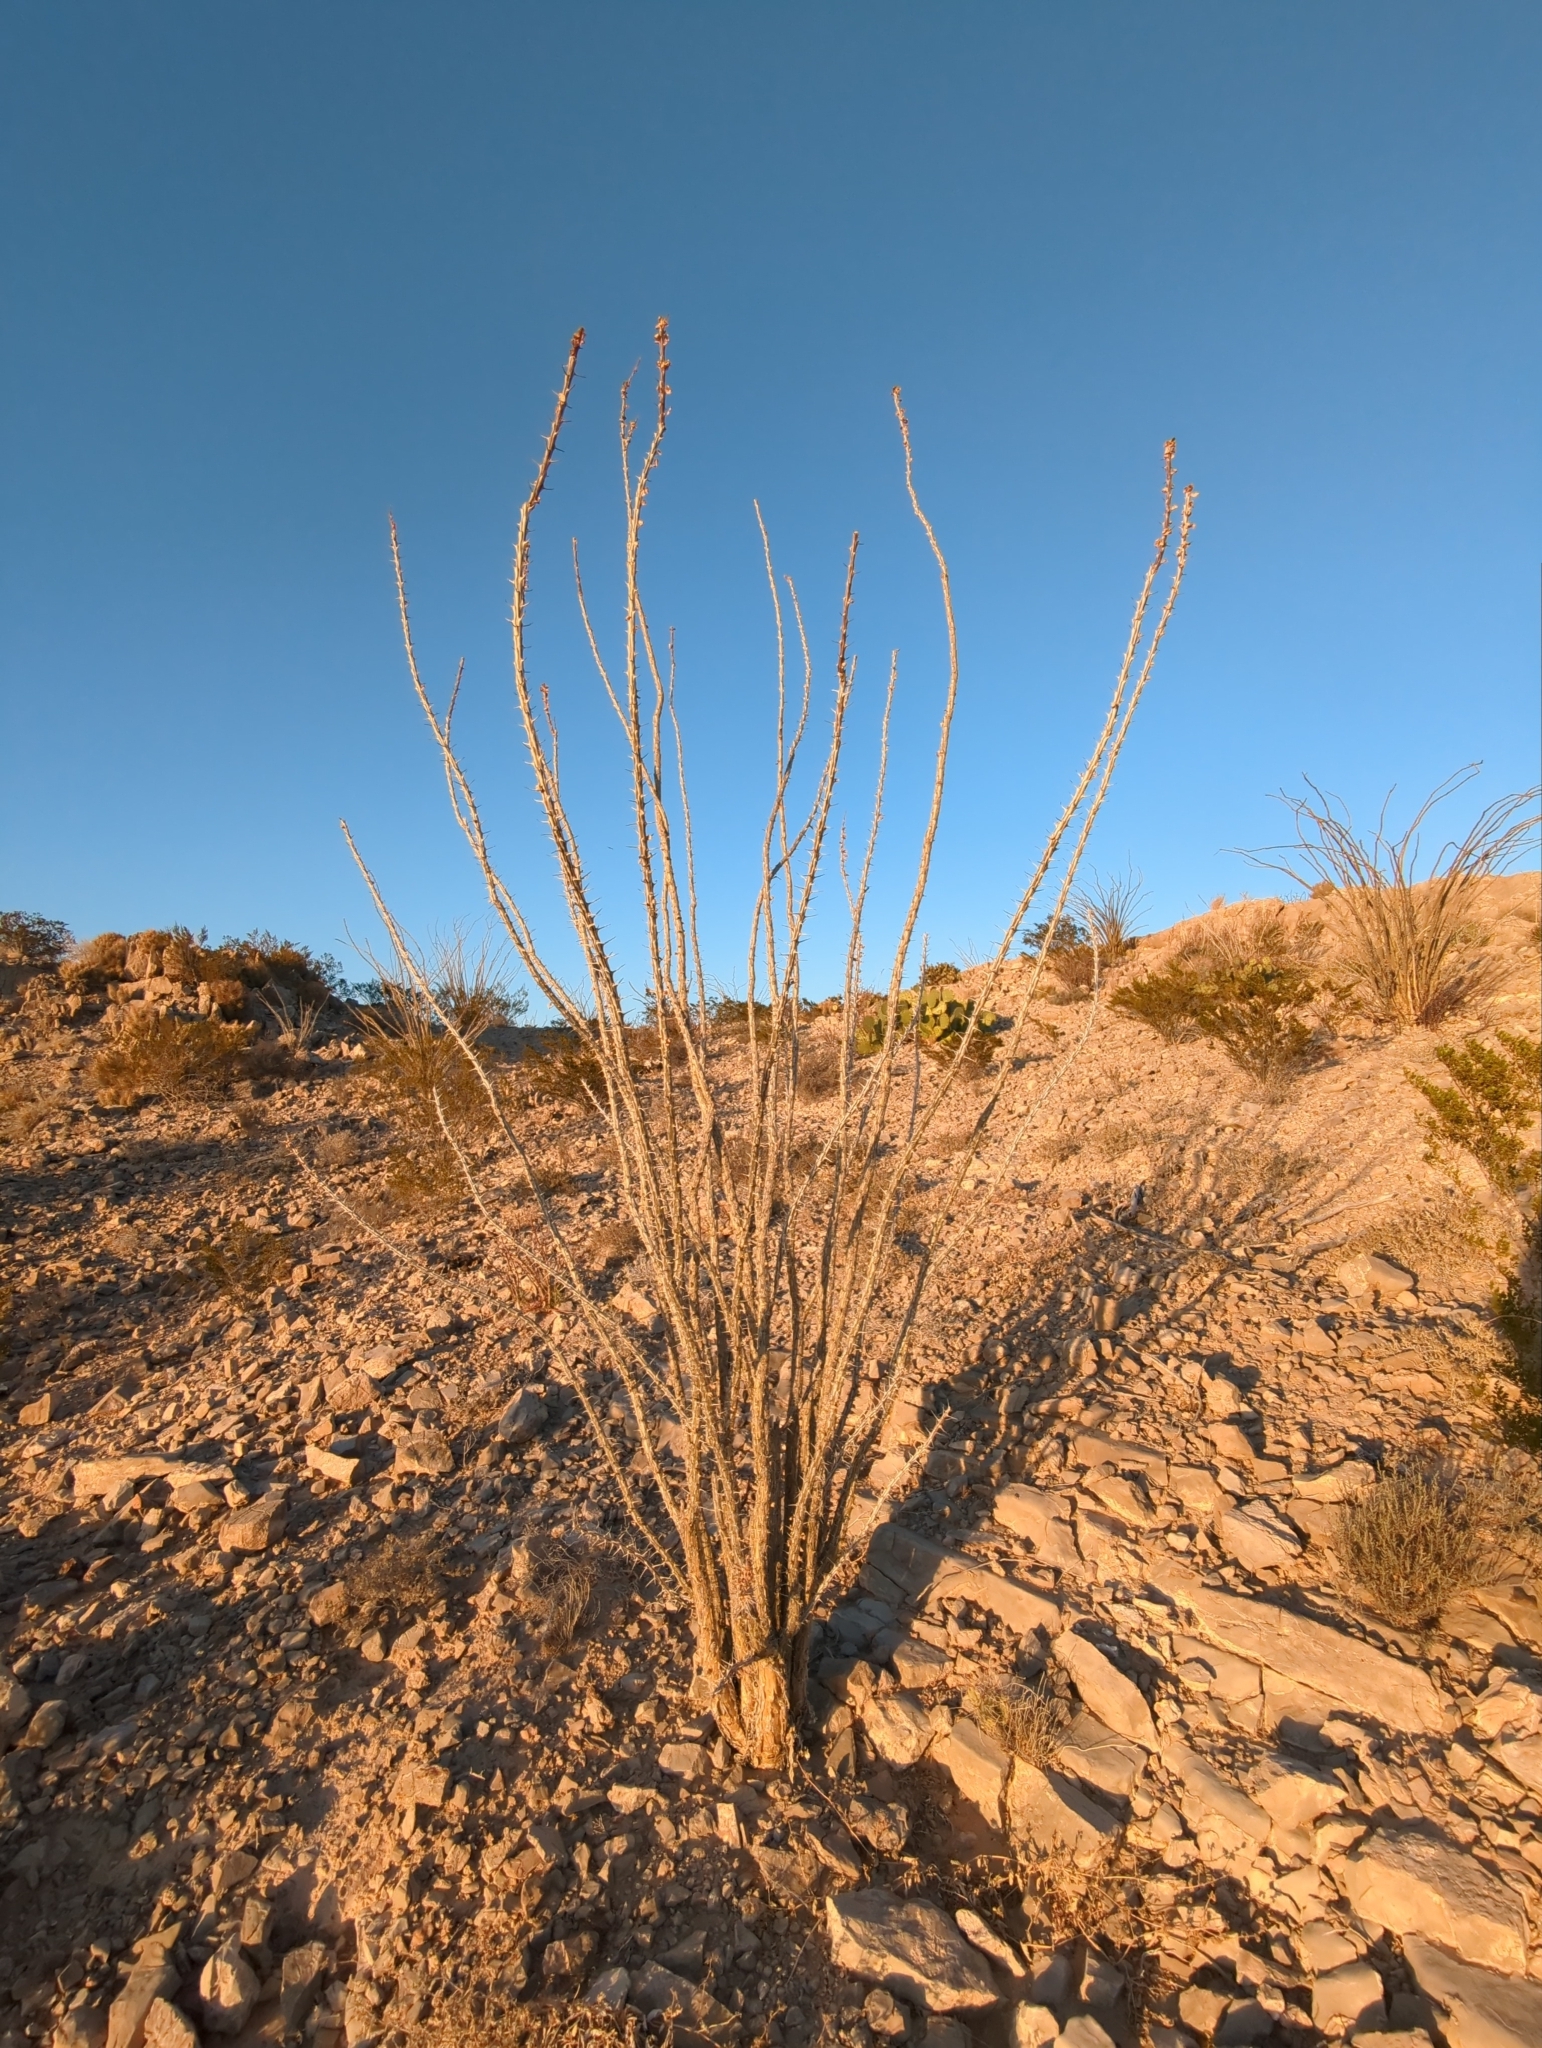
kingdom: Plantae
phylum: Tracheophyta
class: Magnoliopsida
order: Ericales
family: Fouquieriaceae
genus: Fouquieria
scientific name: Fouquieria splendens
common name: Vine-cactus
